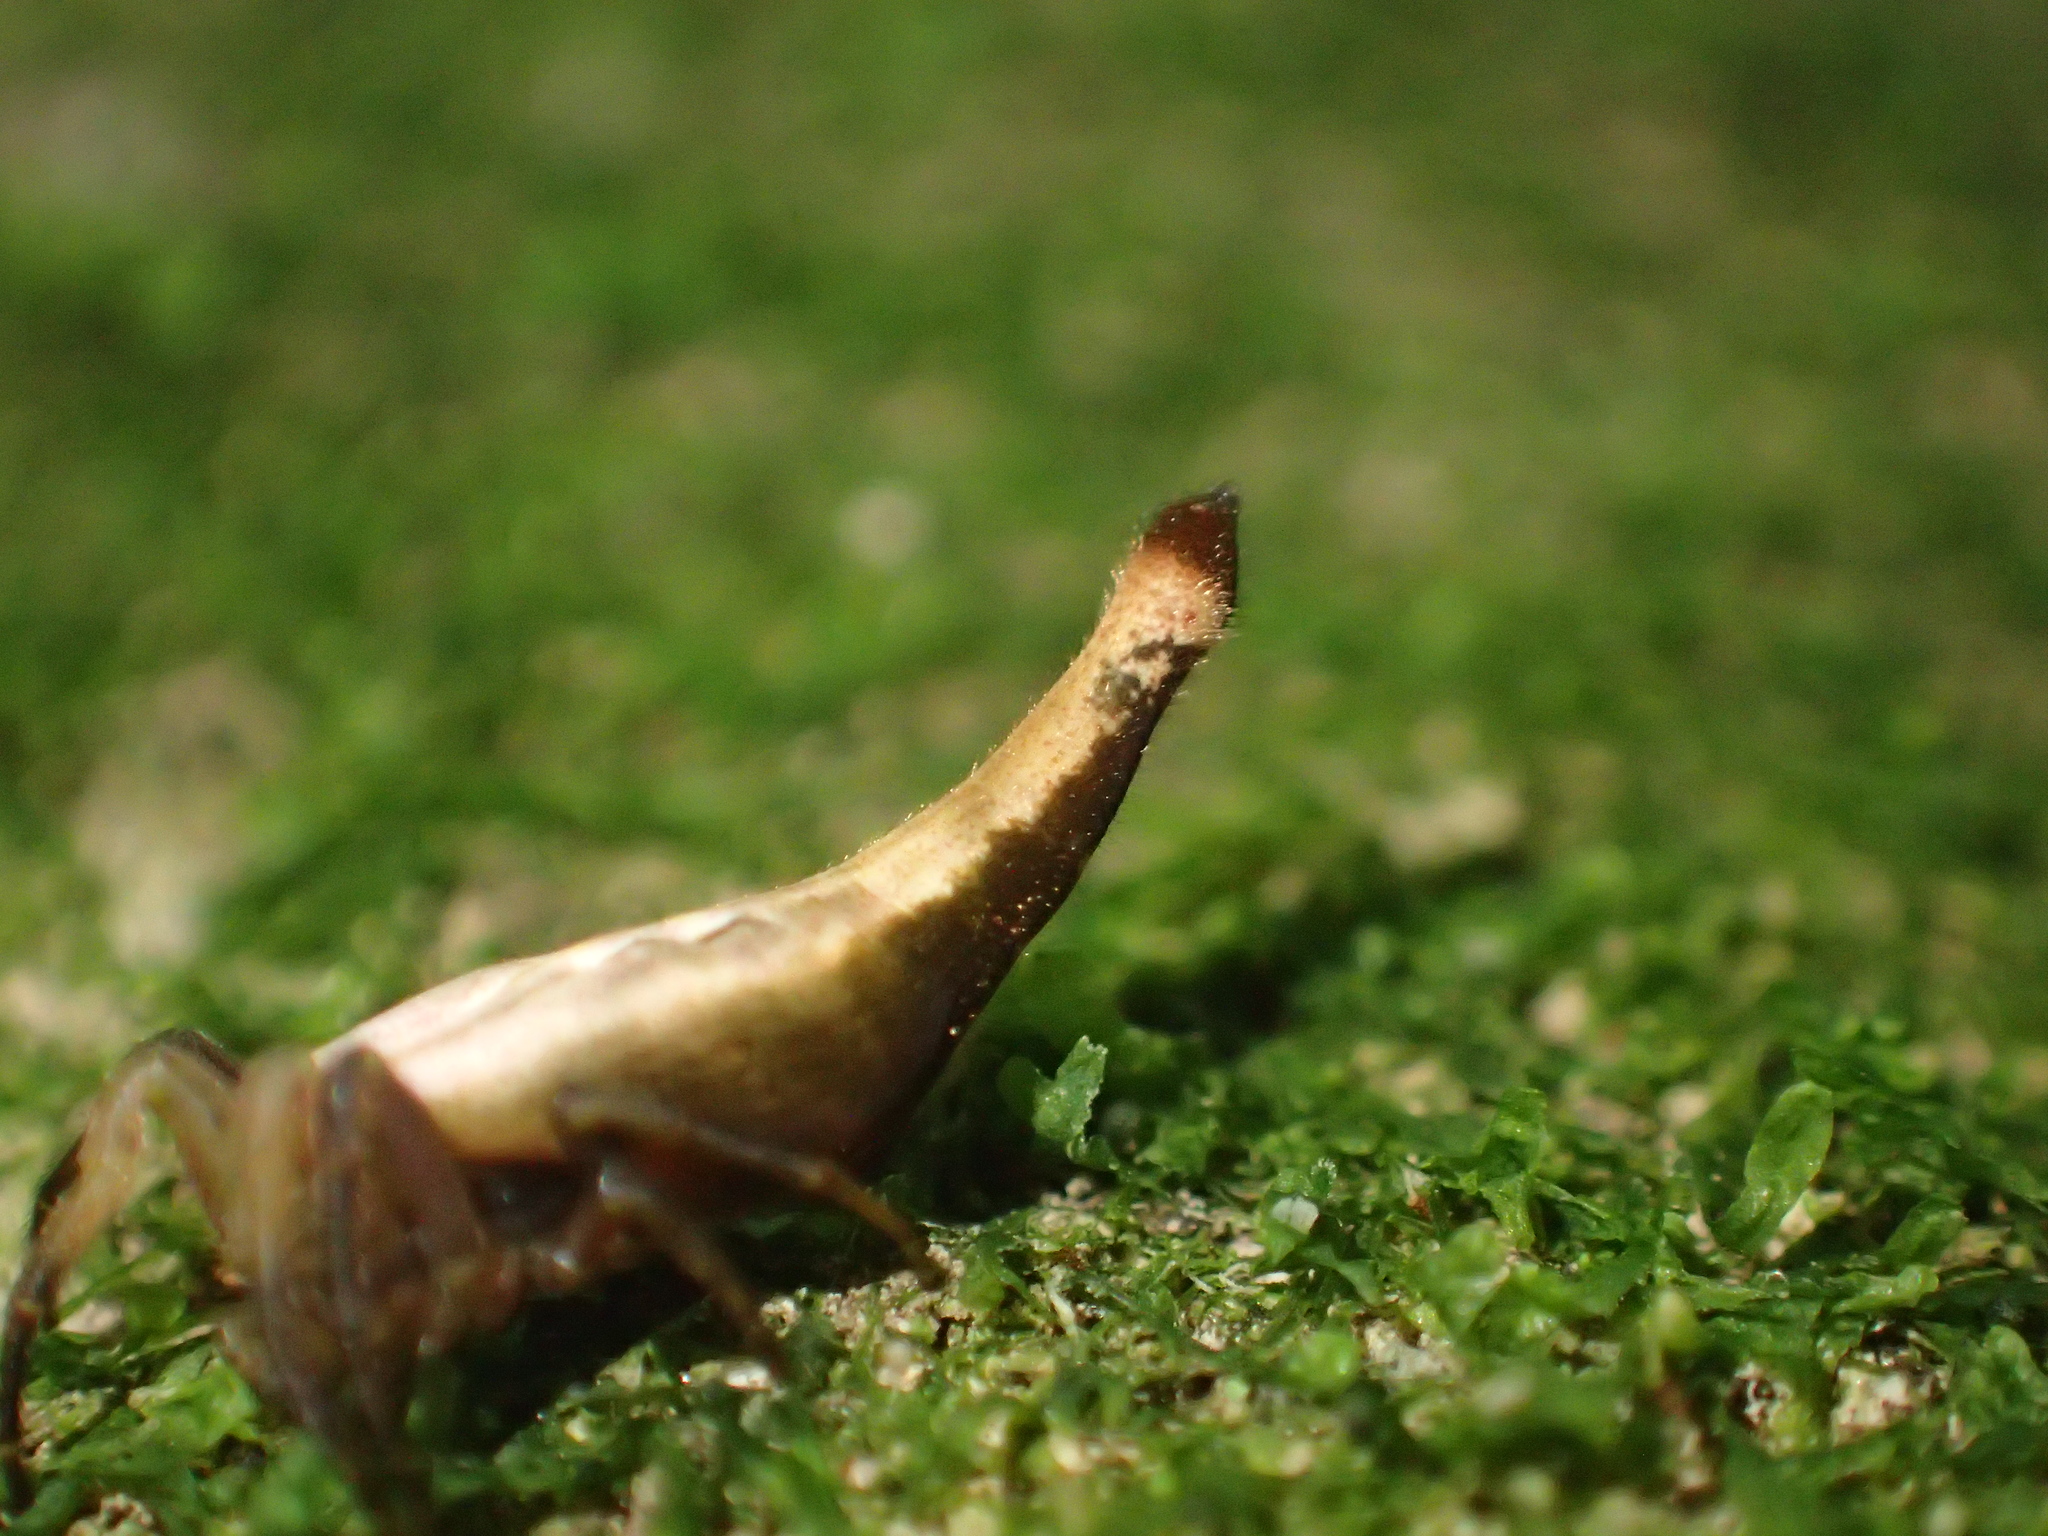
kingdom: Animalia
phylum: Arthropoda
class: Arachnida
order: Araneae
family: Araneidae
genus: Arachnura
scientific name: Arachnura feredayi
